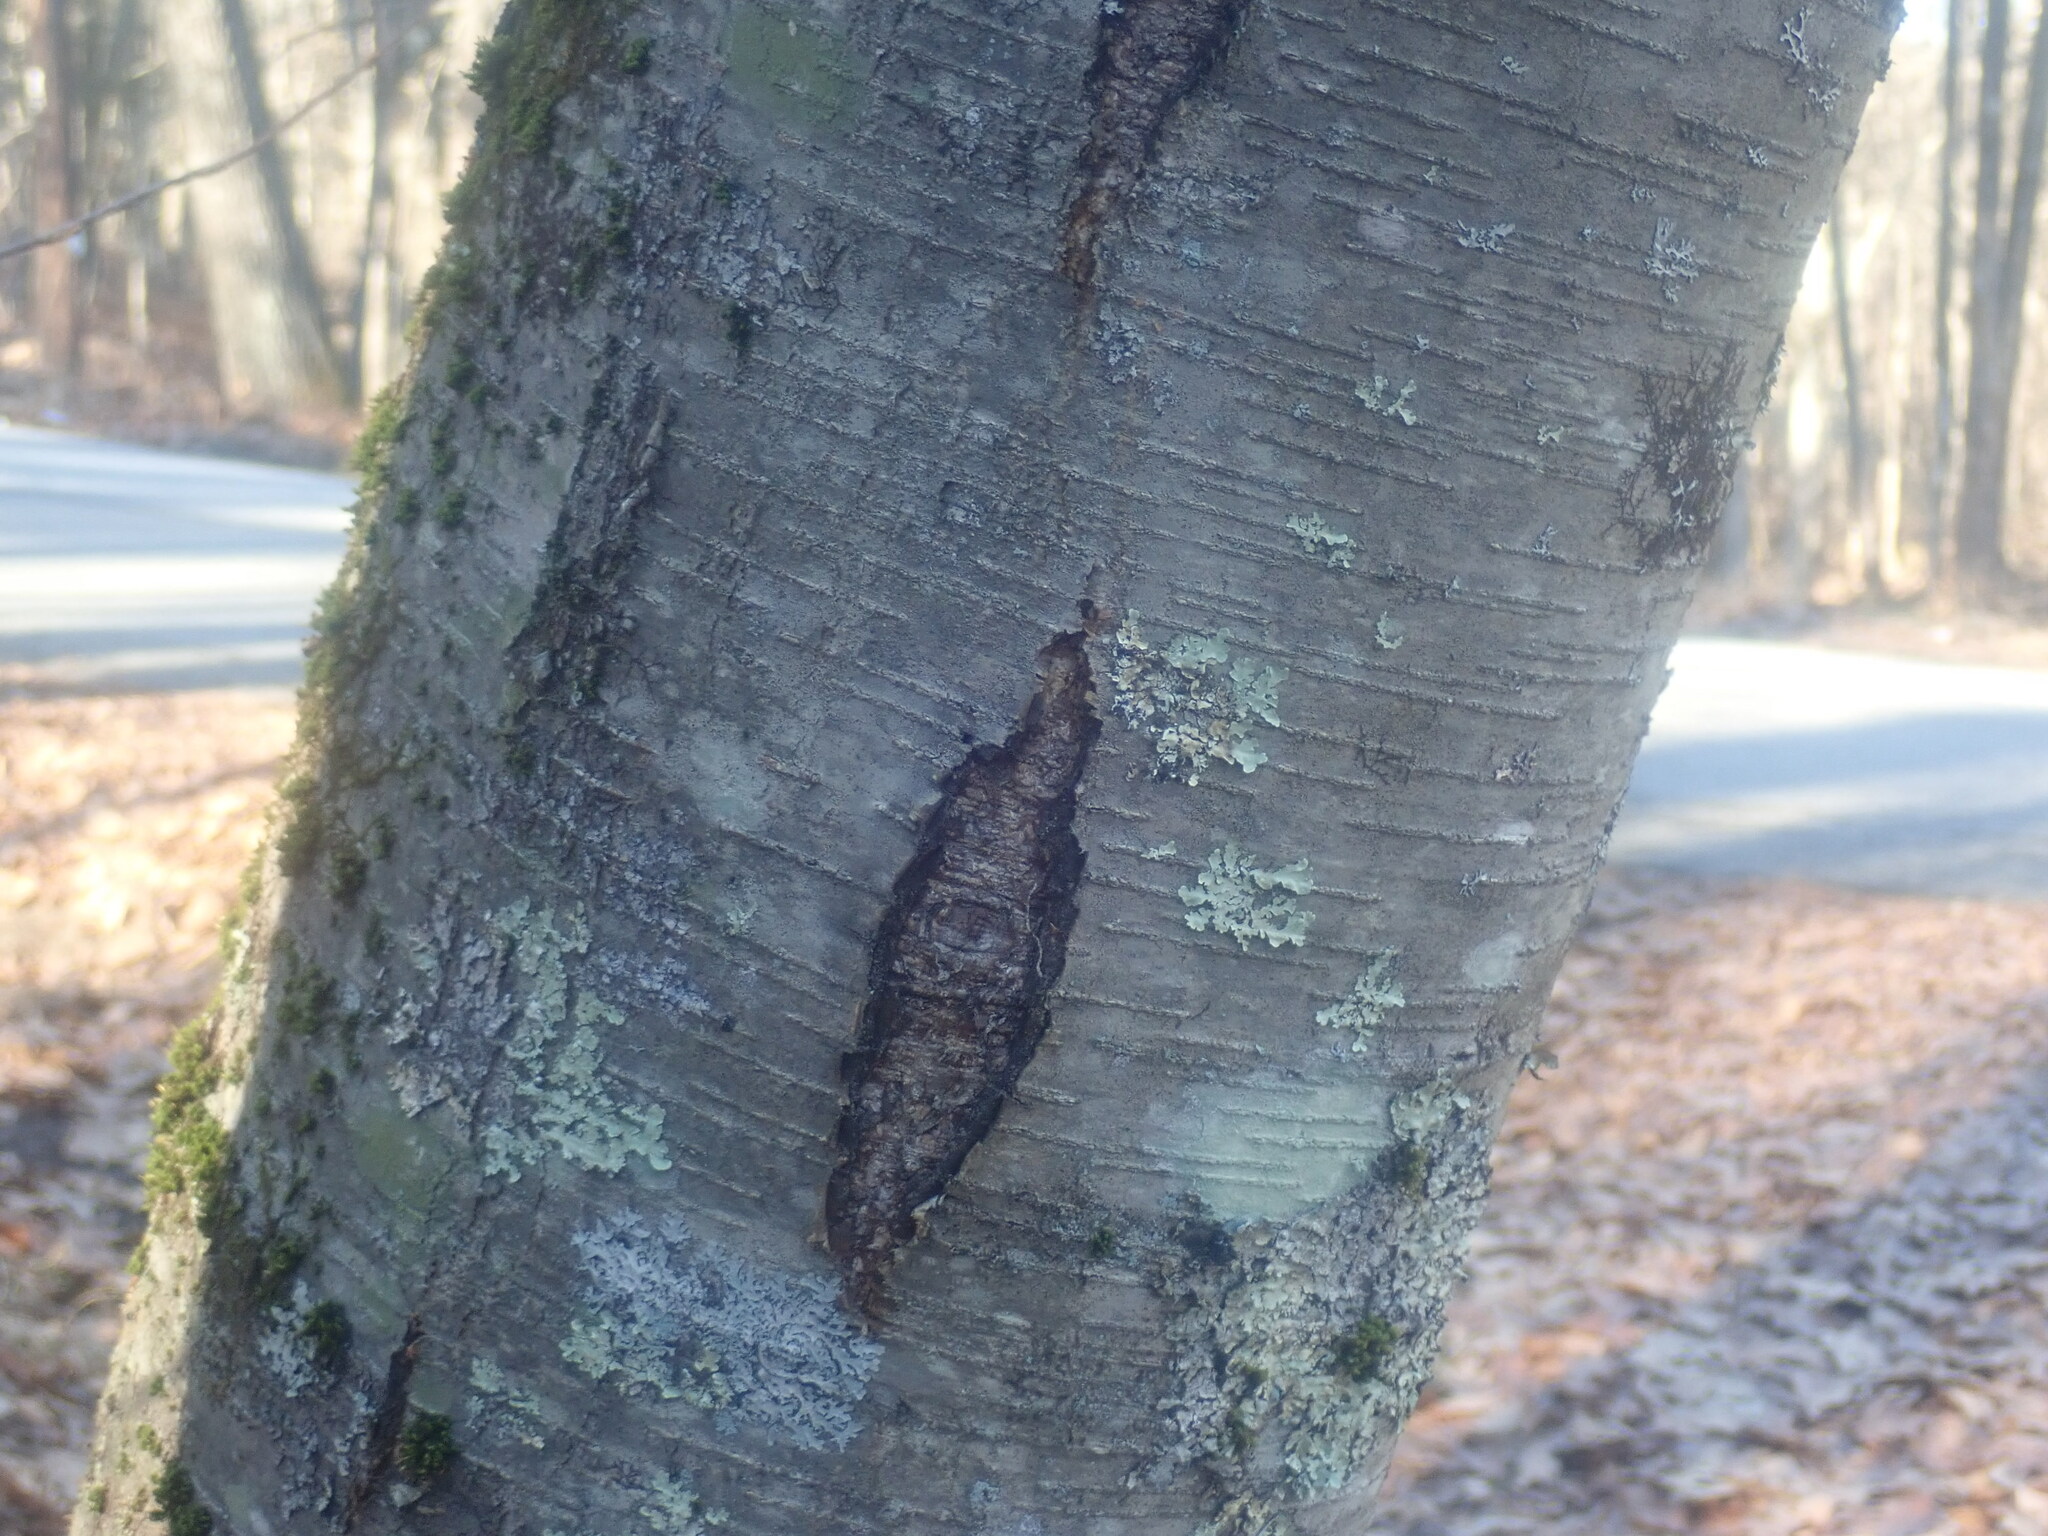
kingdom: Plantae
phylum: Tracheophyta
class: Magnoliopsida
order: Fagales
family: Betulaceae
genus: Betula
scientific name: Betula lenta
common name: Black birch
